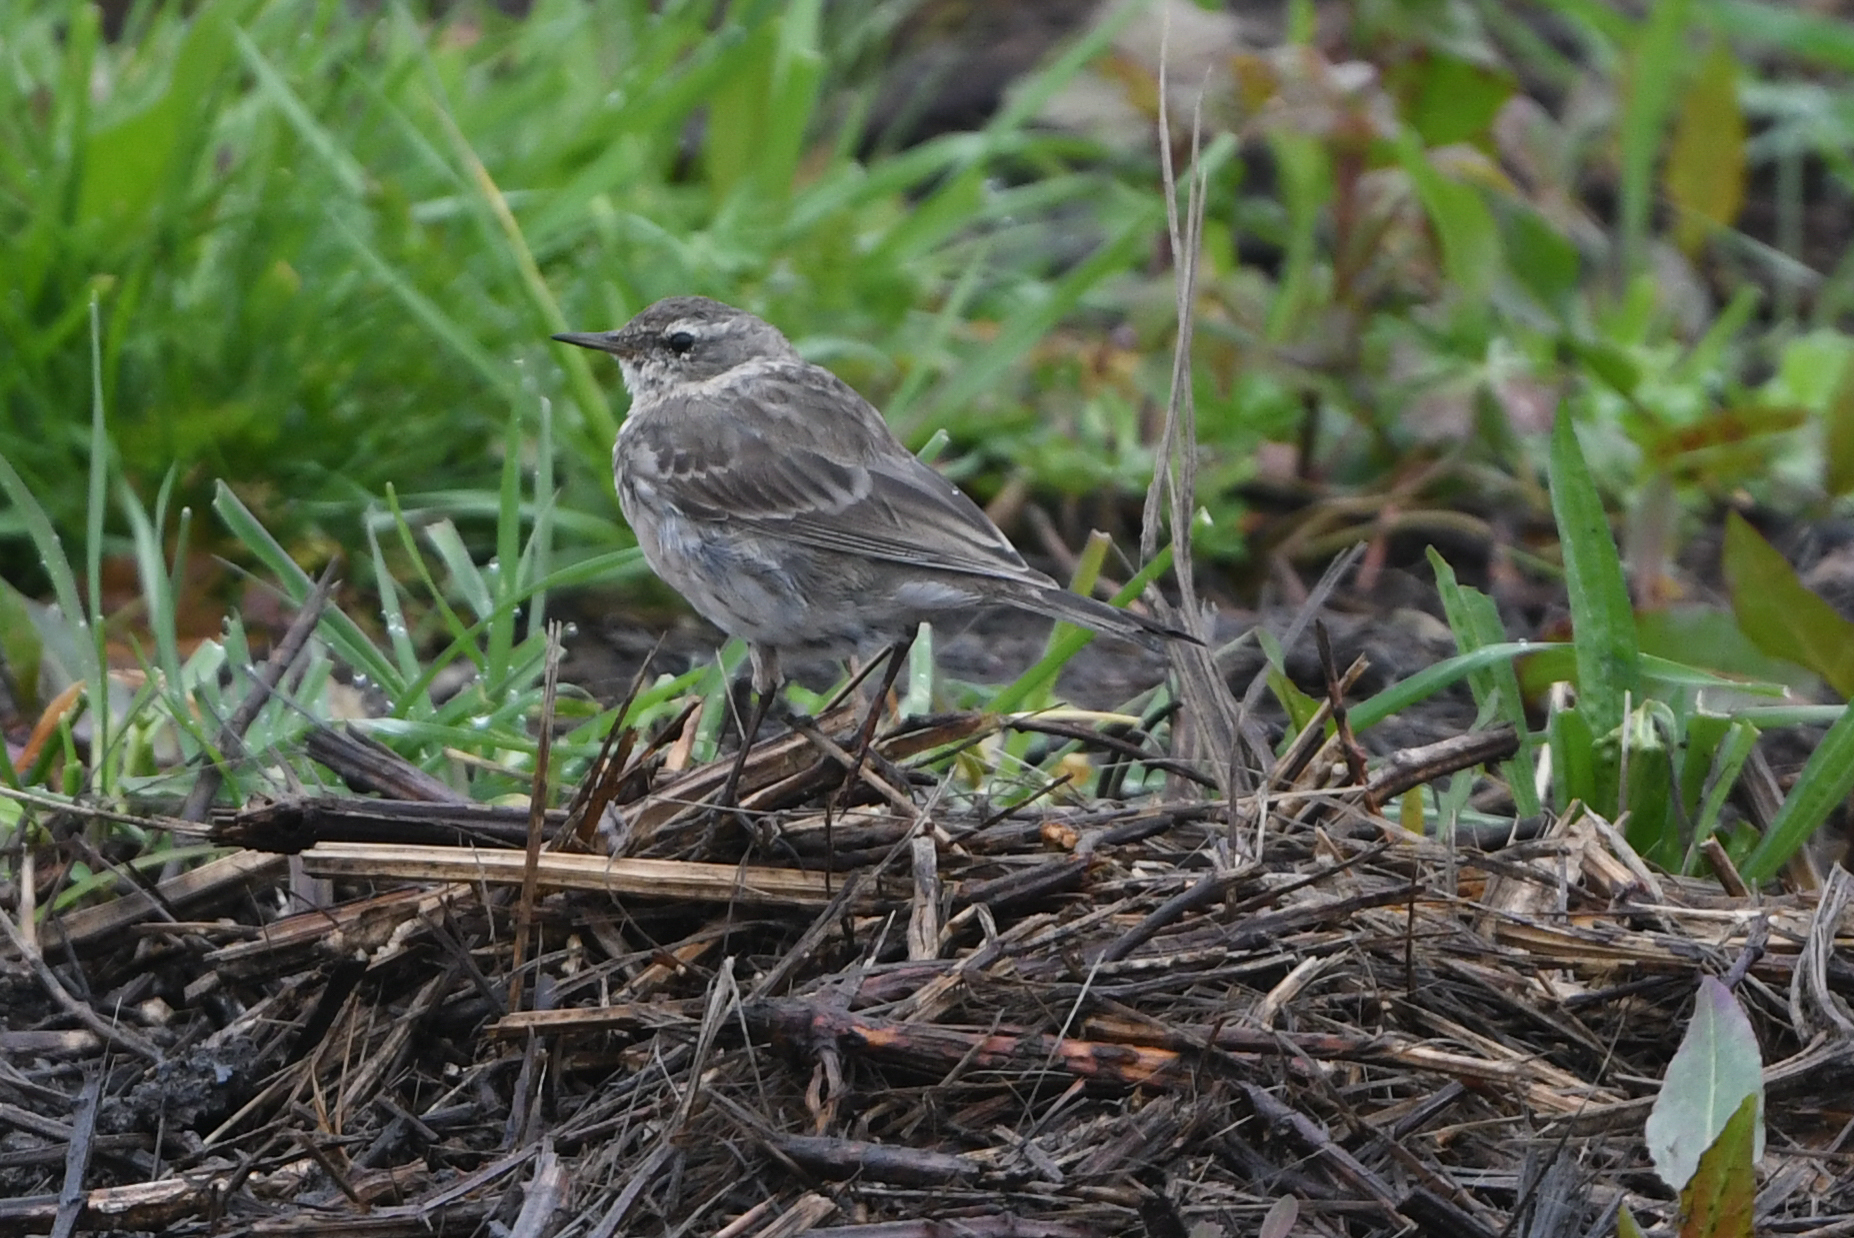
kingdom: Animalia
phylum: Chordata
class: Aves
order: Passeriformes
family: Motacillidae
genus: Anthus
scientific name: Anthus spinoletta
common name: Water pipit
